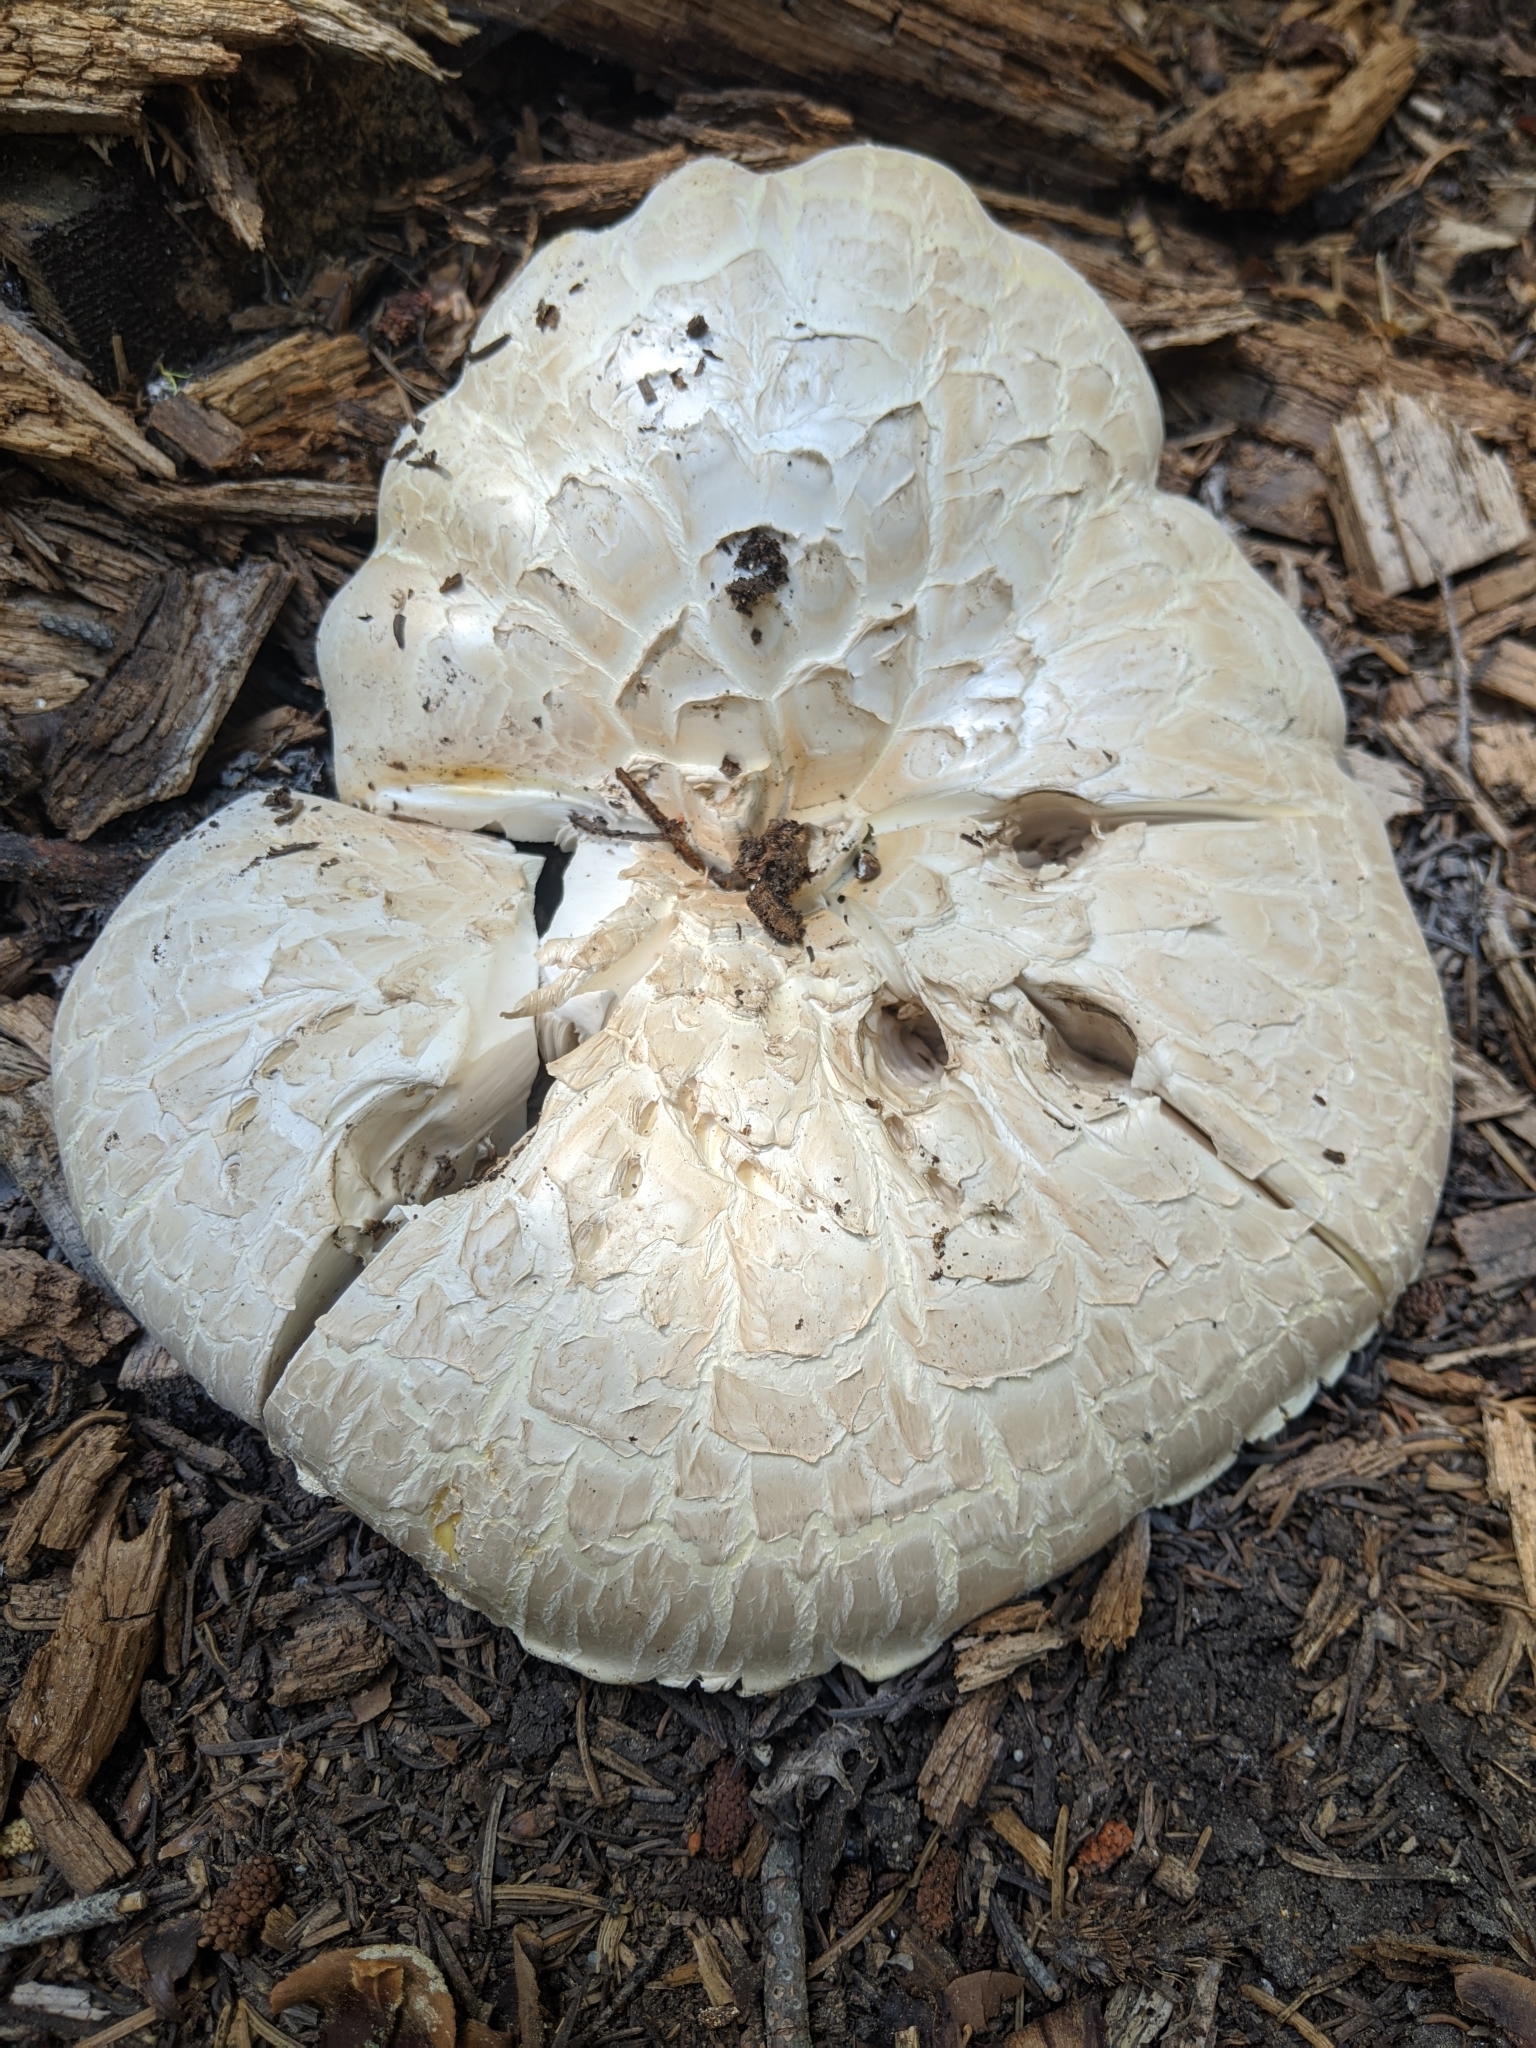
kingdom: Fungi
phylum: Basidiomycota
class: Agaricomycetes
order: Gloeophyllales
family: Gloeophyllaceae
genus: Neolentinus
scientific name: Neolentinus ponderosus
